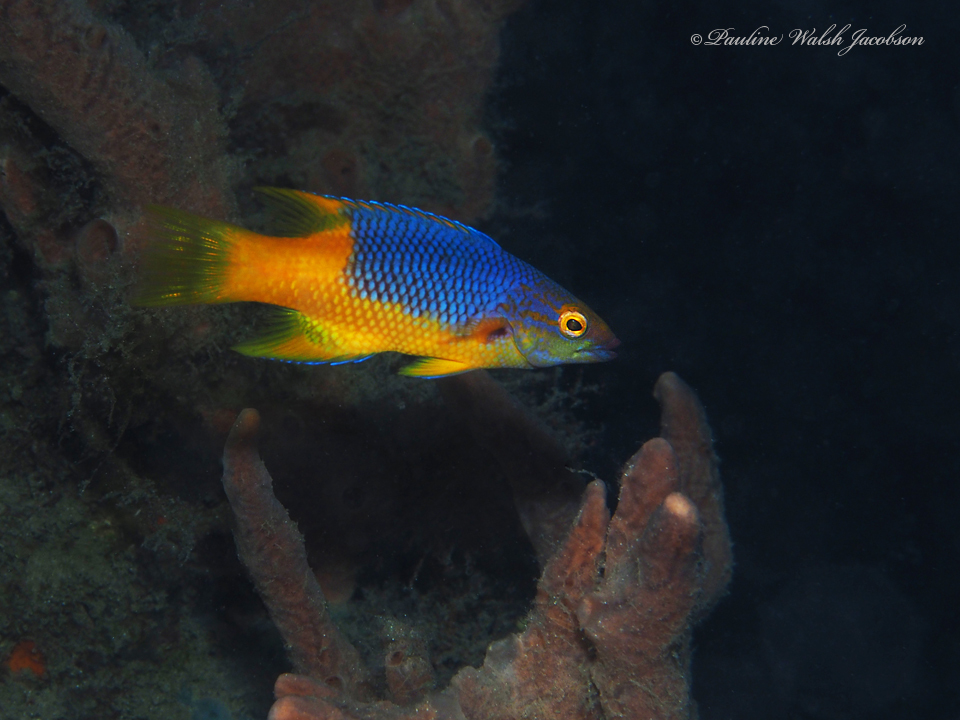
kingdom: Animalia
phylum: Chordata
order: Perciformes
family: Labridae
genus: Bodianus
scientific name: Bodianus rufus
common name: Spanish hogfish
